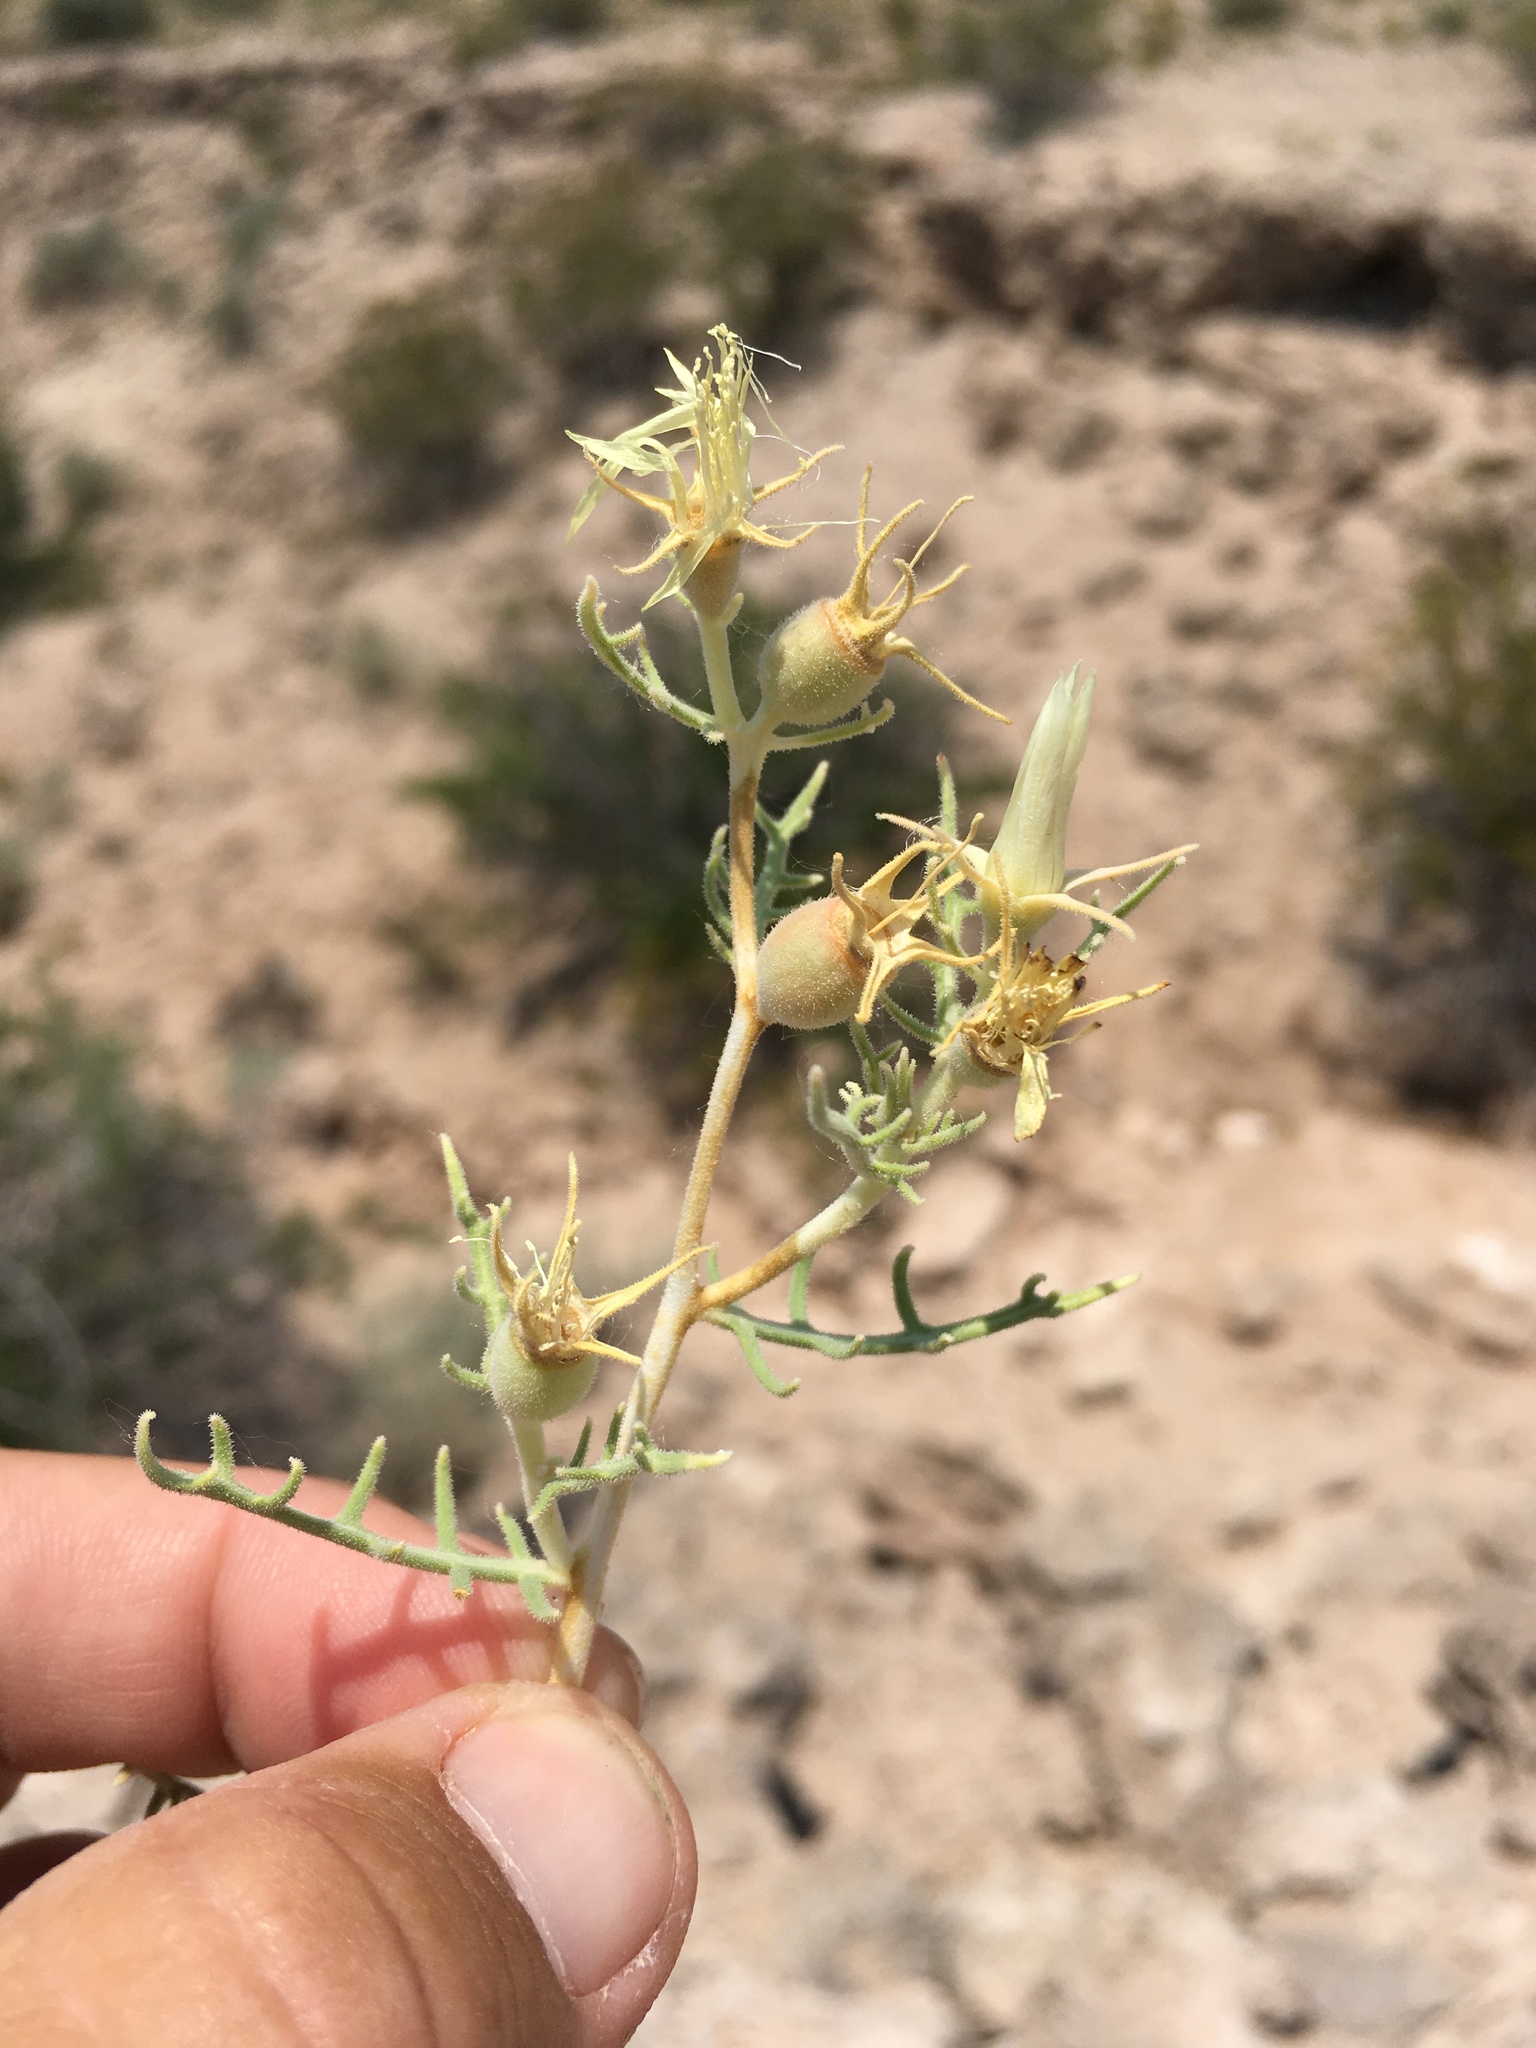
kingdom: Plantae
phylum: Tracheophyta
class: Magnoliopsida
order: Cornales
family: Loasaceae
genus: Mentzelia
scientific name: Mentzelia humilis
